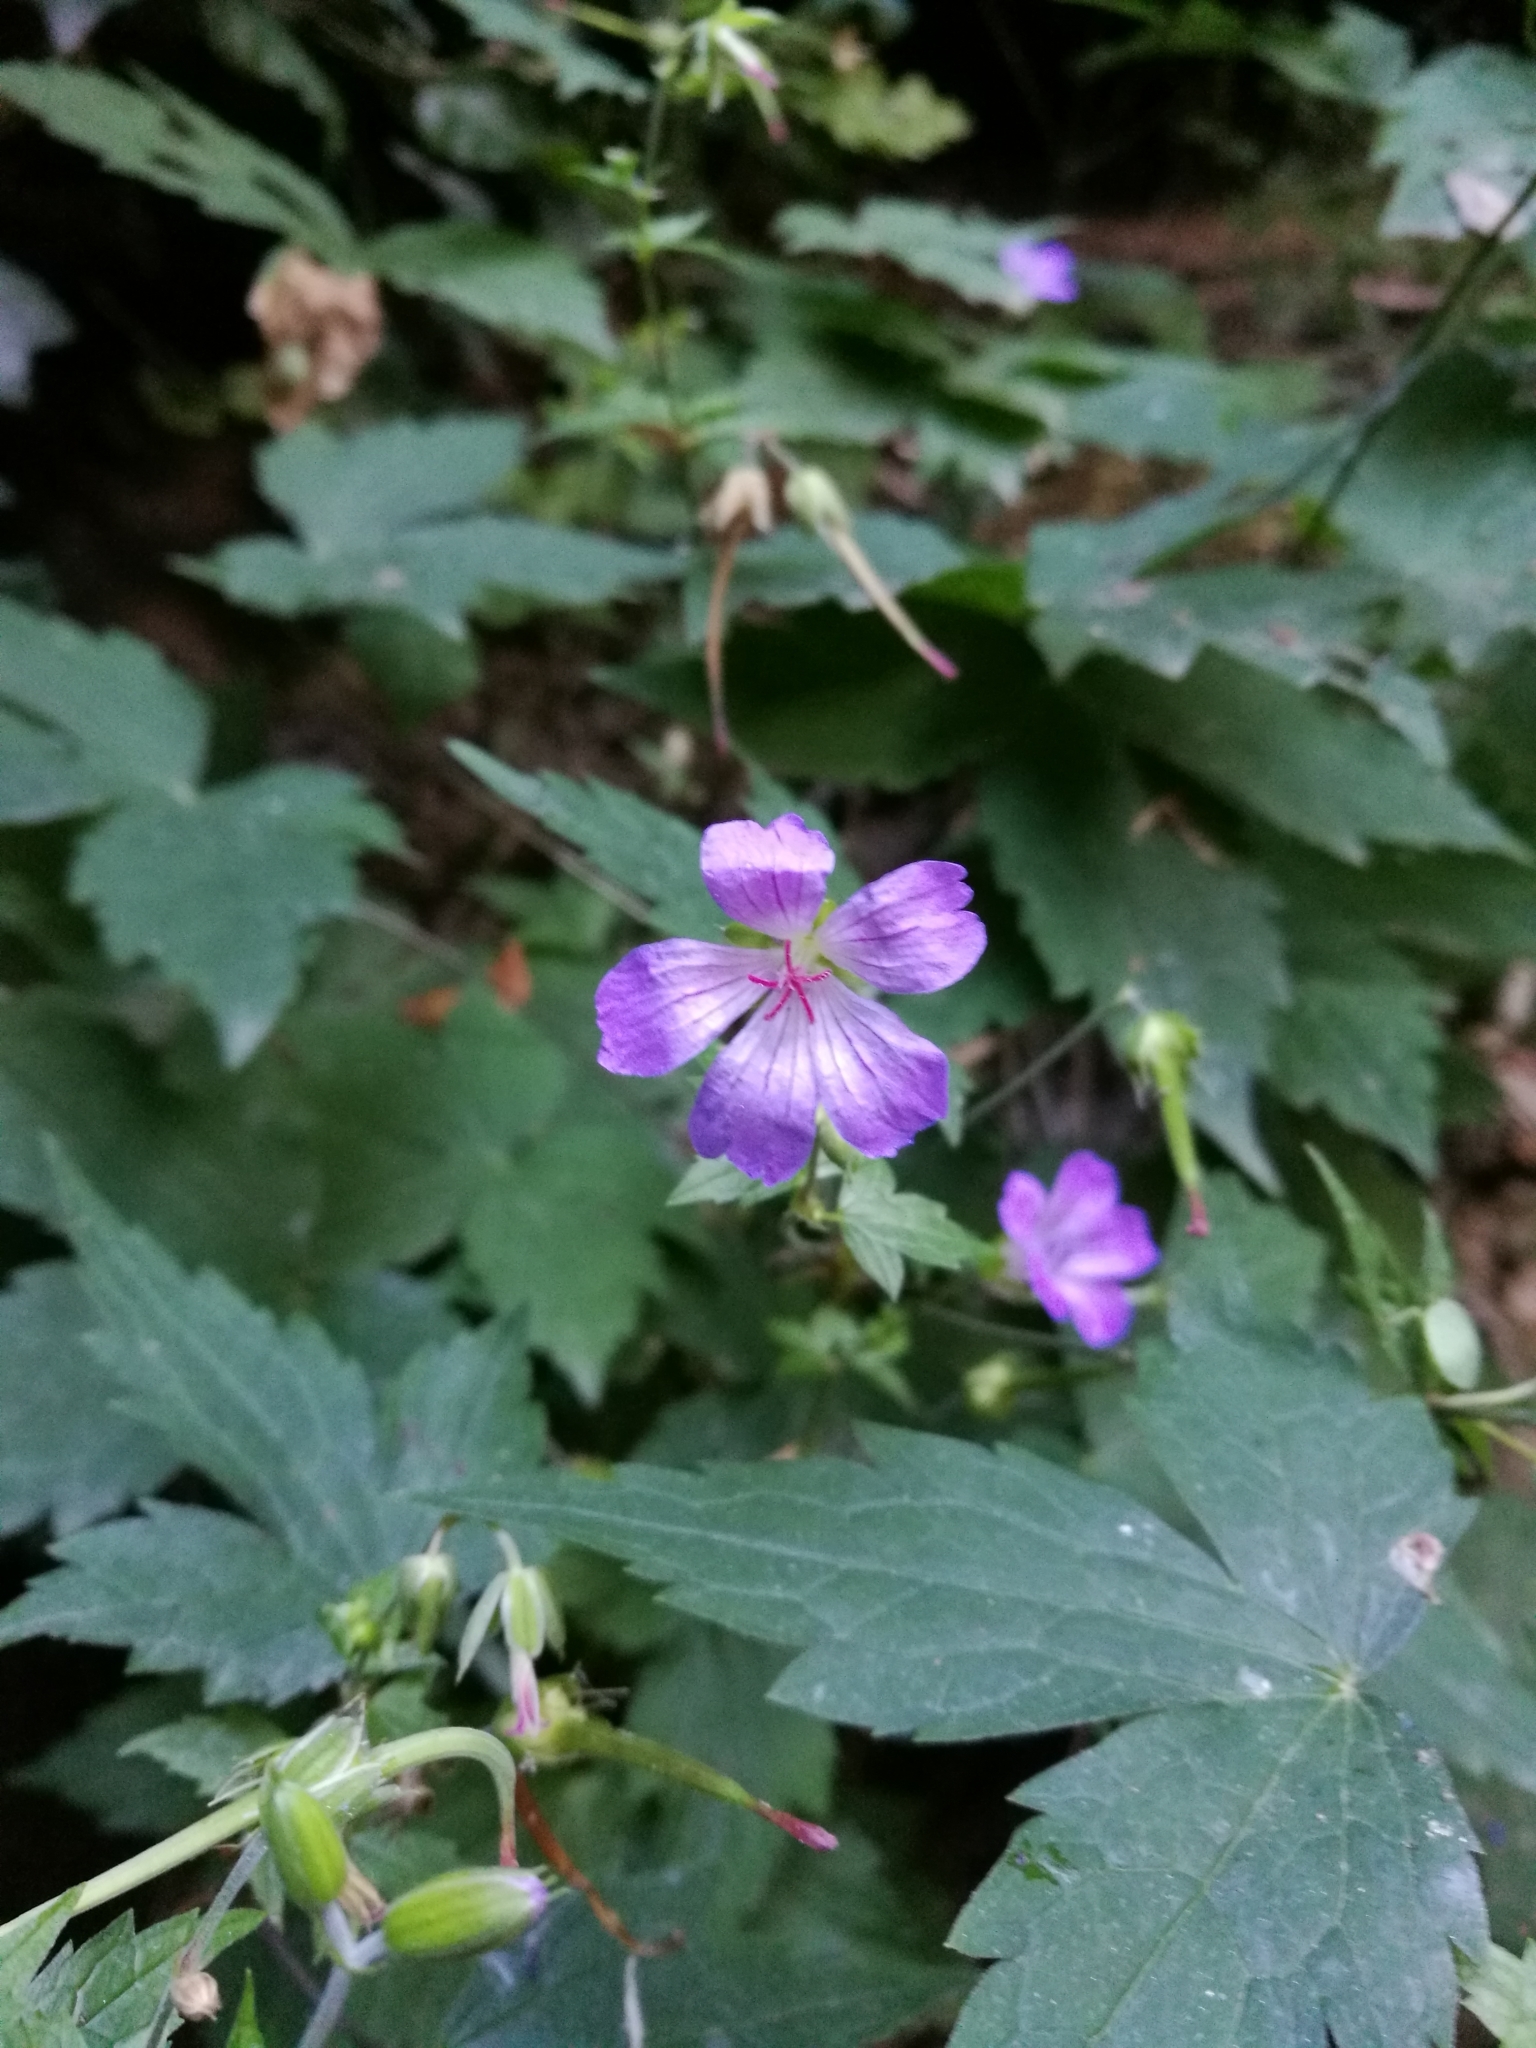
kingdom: Plantae
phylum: Tracheophyta
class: Magnoliopsida
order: Geraniales
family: Geraniaceae
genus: Geranium
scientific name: Geranium nodosum
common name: Knotted crane's-bill
